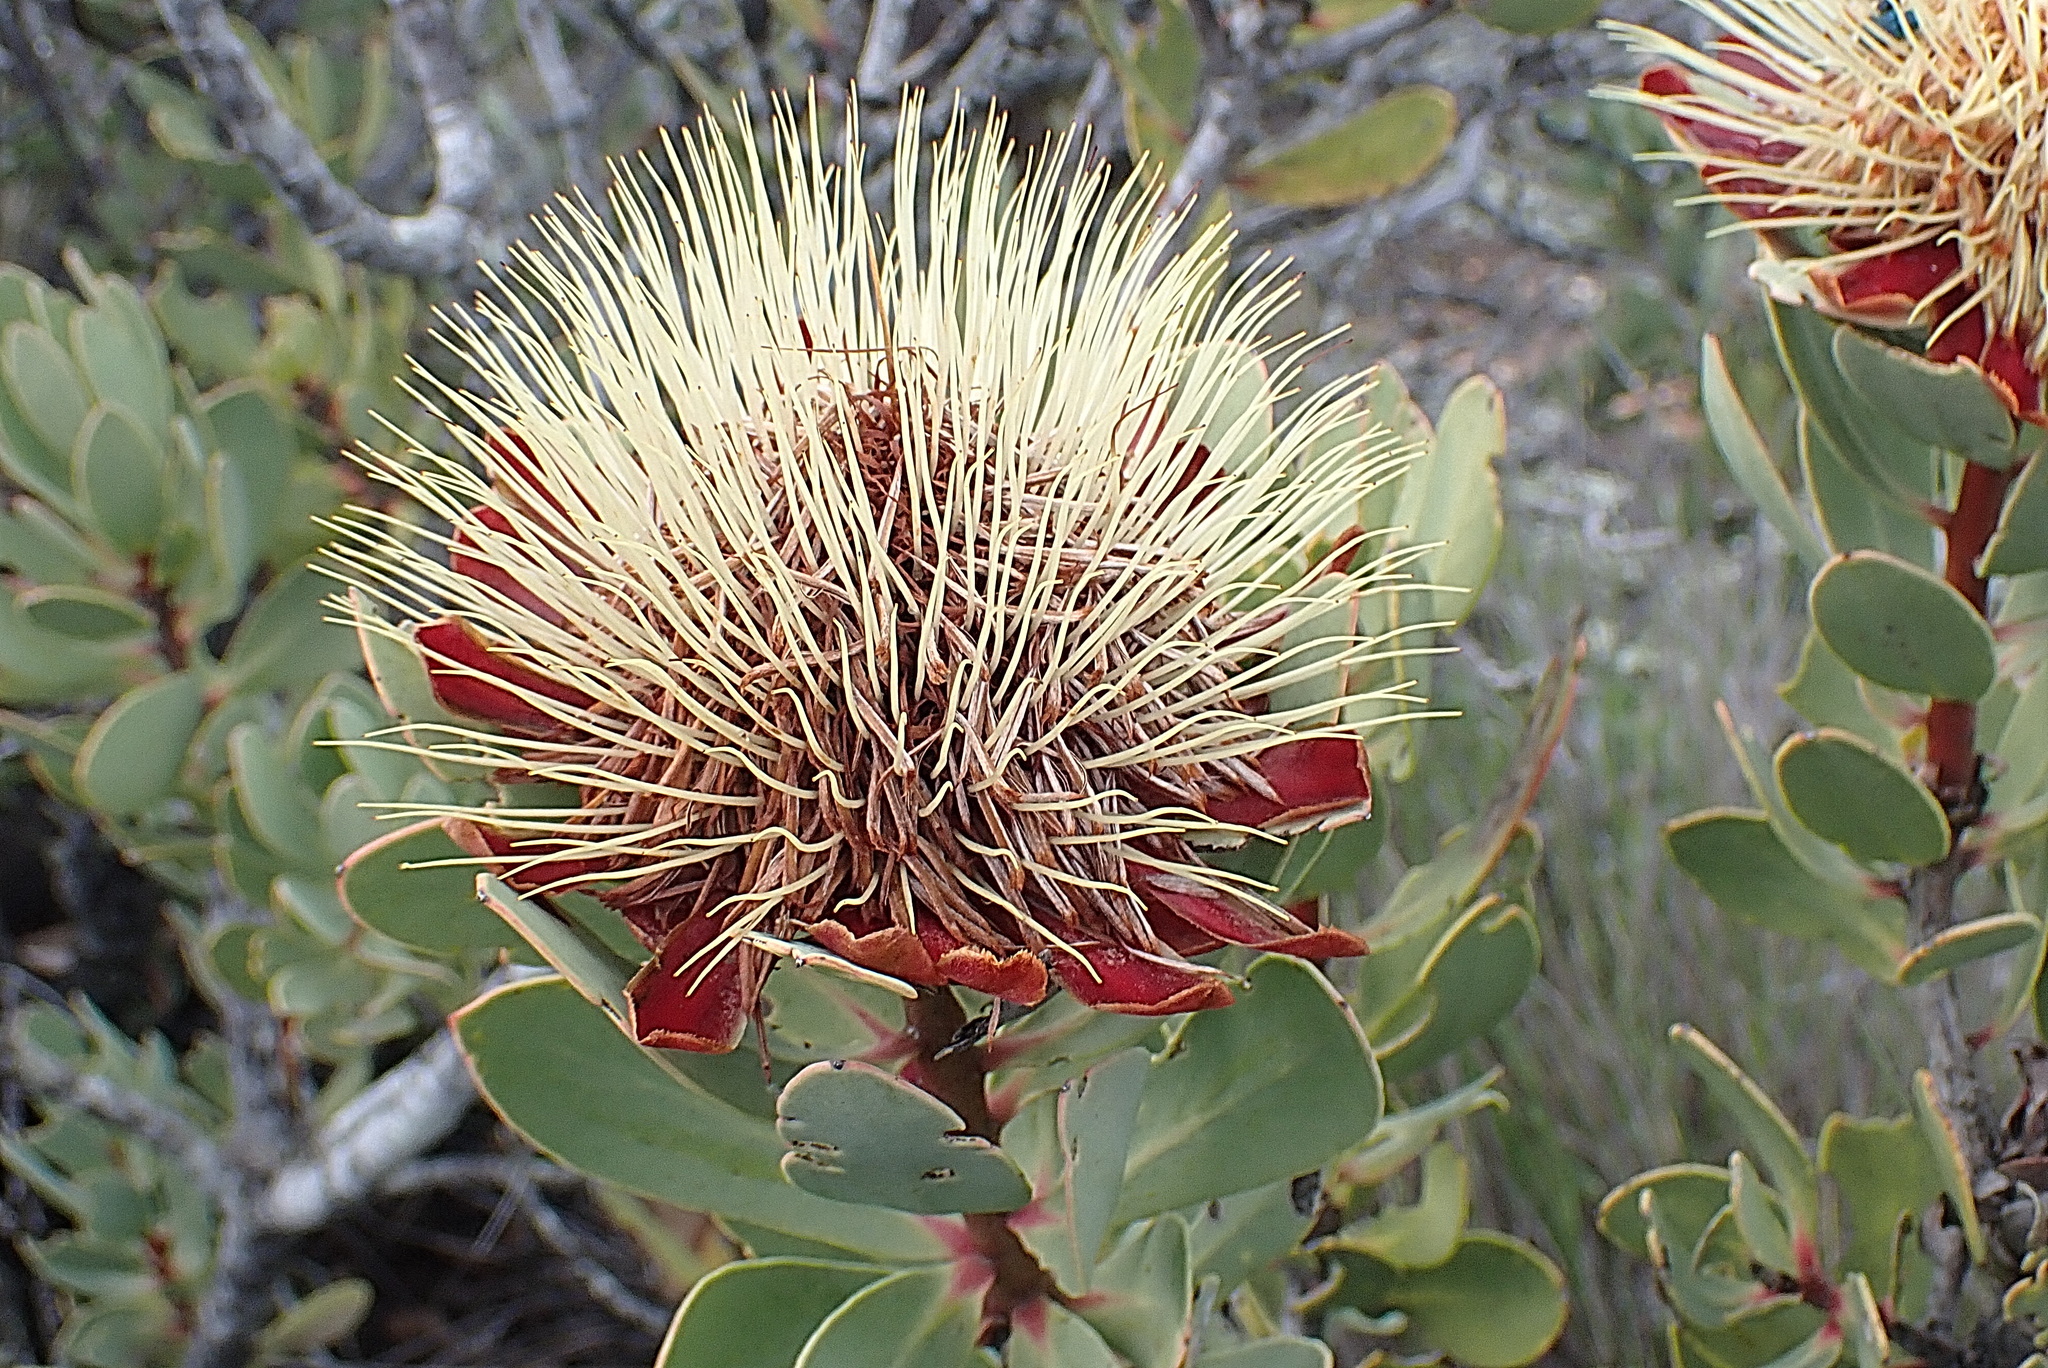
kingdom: Plantae
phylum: Tracheophyta
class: Magnoliopsida
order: Proteales
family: Proteaceae
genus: Protea
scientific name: Protea glabra
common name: Chestnut sugarbush
